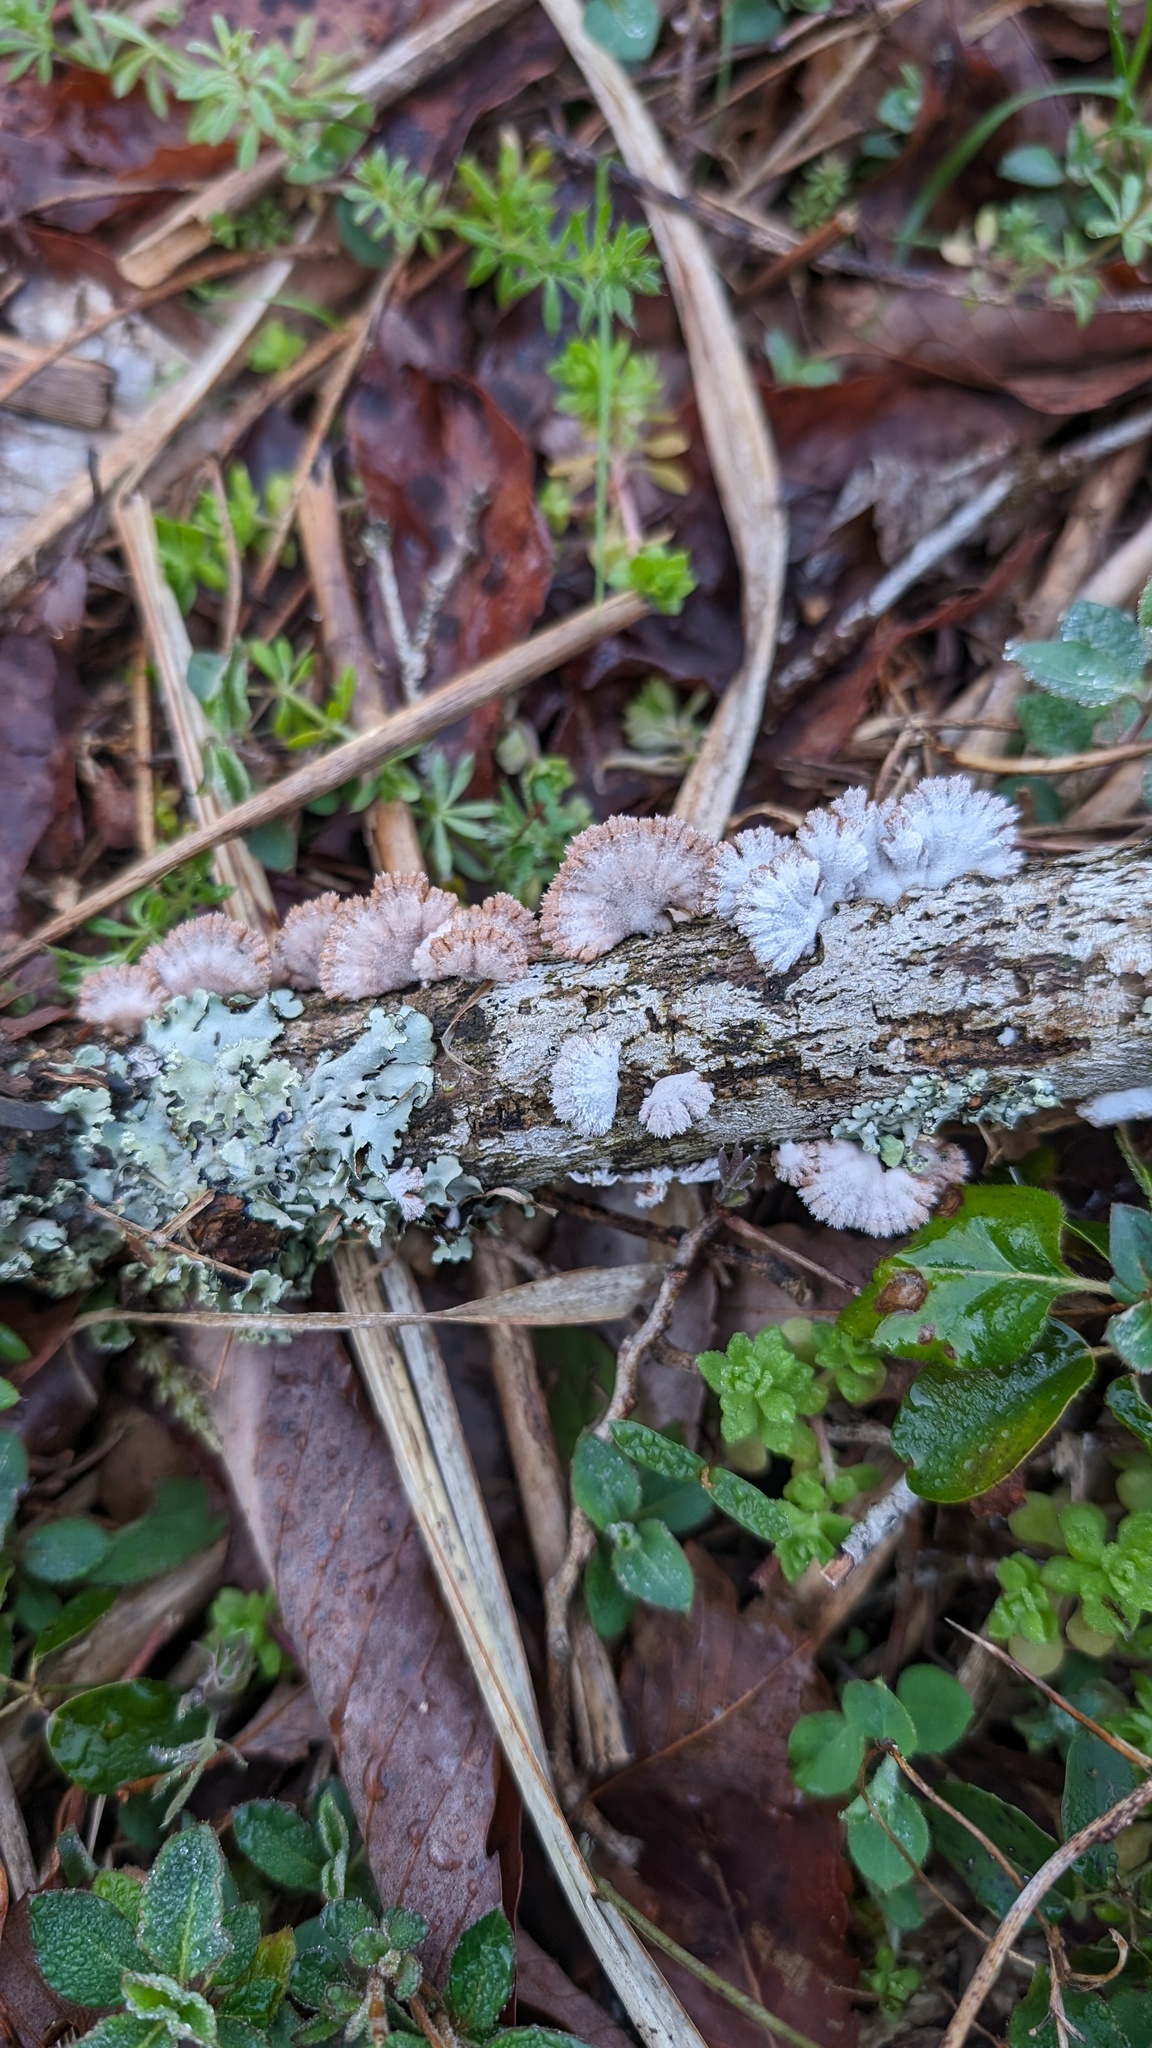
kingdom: Fungi
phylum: Basidiomycota
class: Agaricomycetes
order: Agaricales
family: Schizophyllaceae
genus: Schizophyllum
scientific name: Schizophyllum commune
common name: Common porecrust
